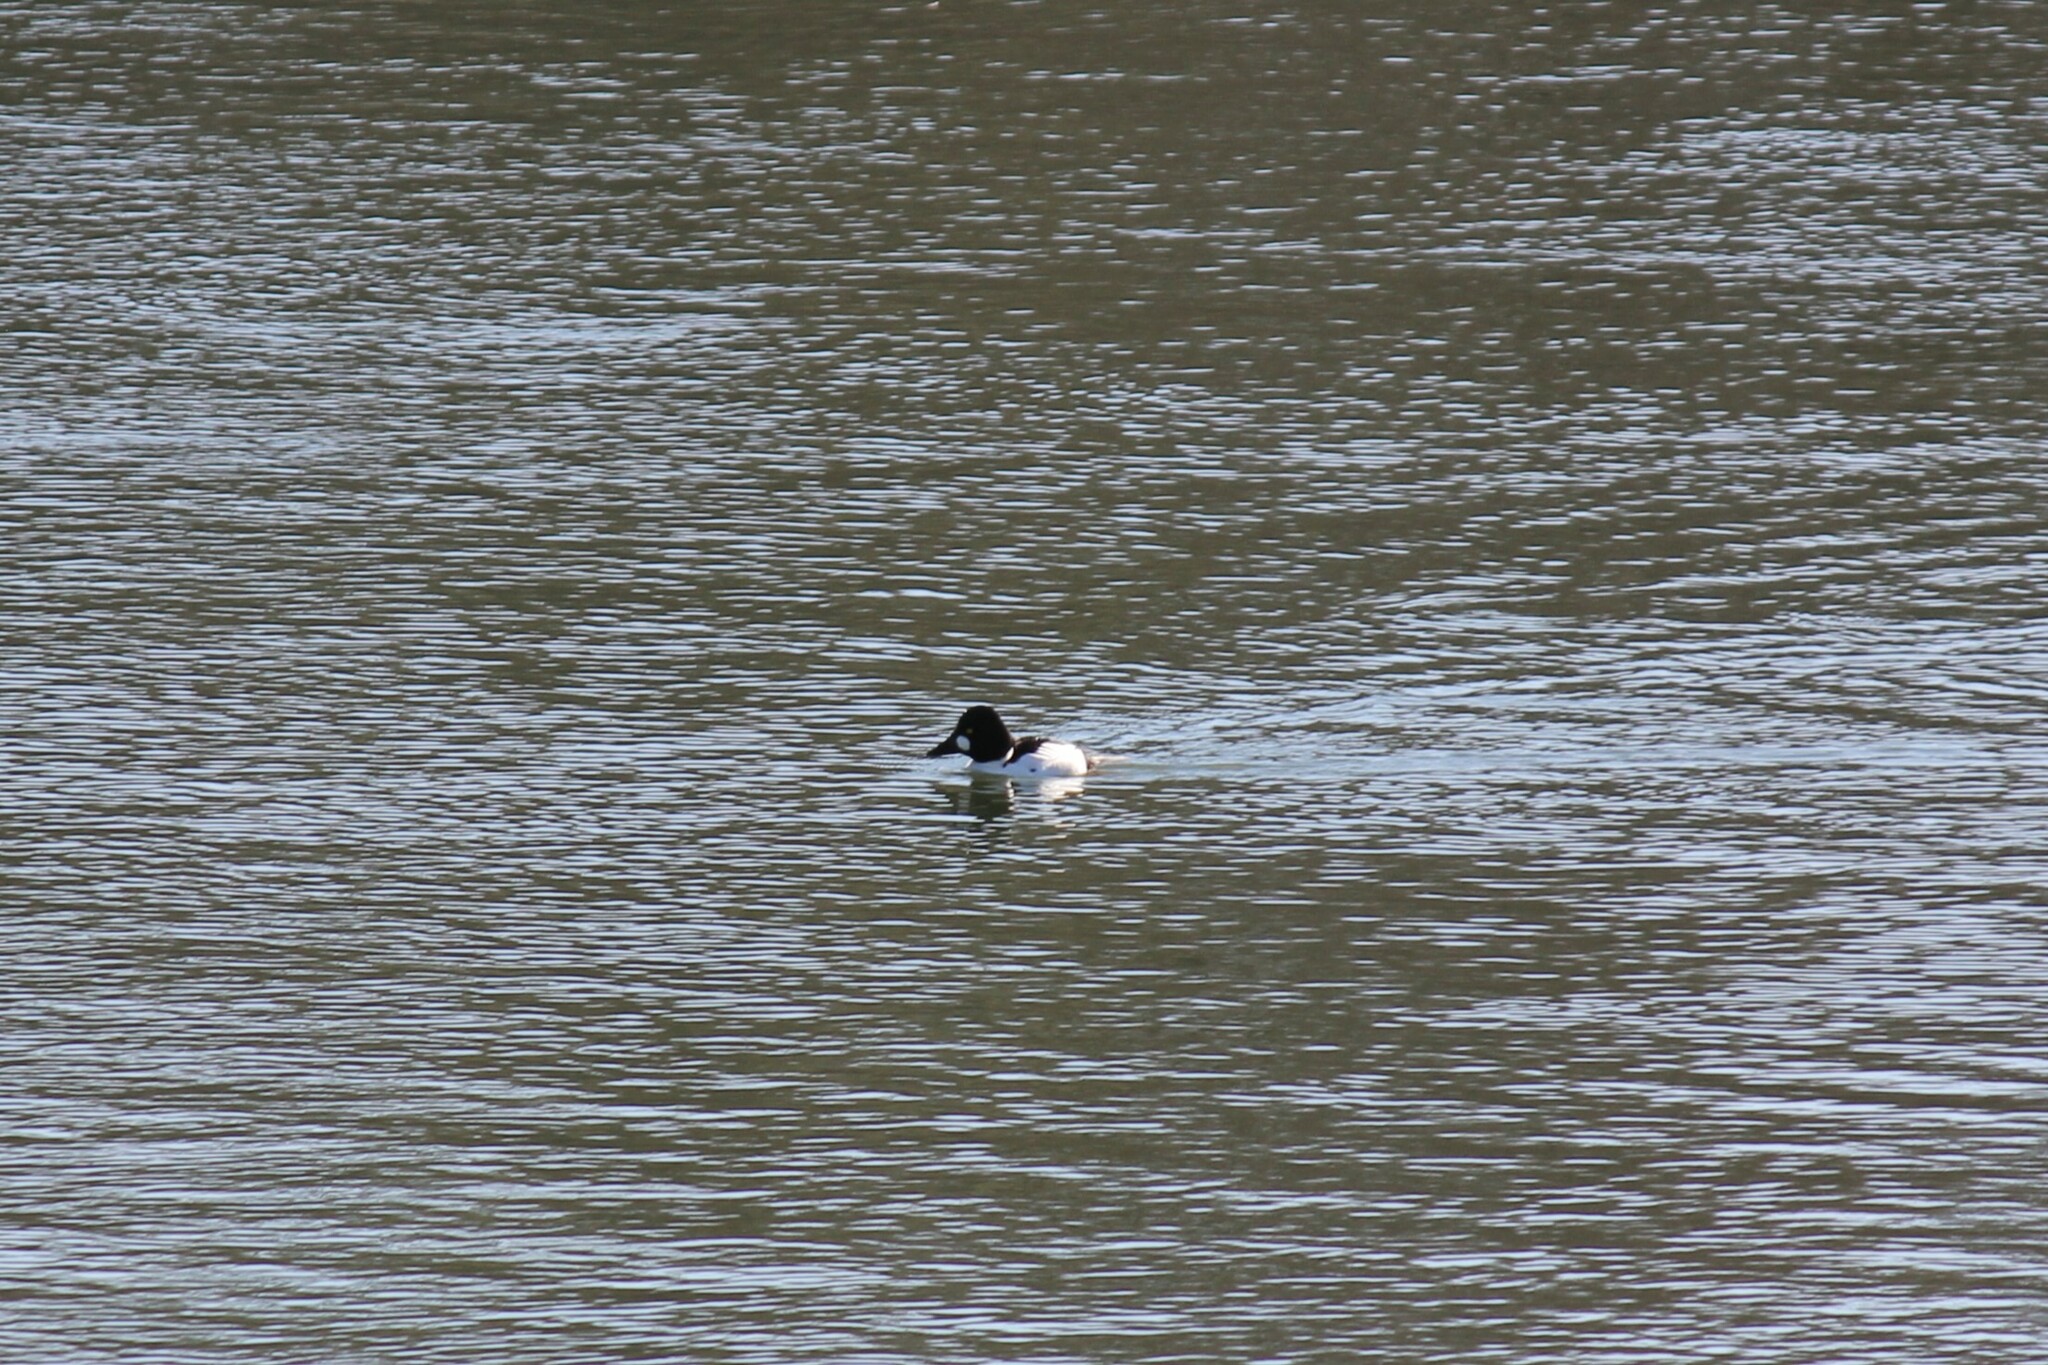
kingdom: Animalia
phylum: Chordata
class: Aves
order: Anseriformes
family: Anatidae
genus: Bucephala
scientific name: Bucephala clangula
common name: Common goldeneye
